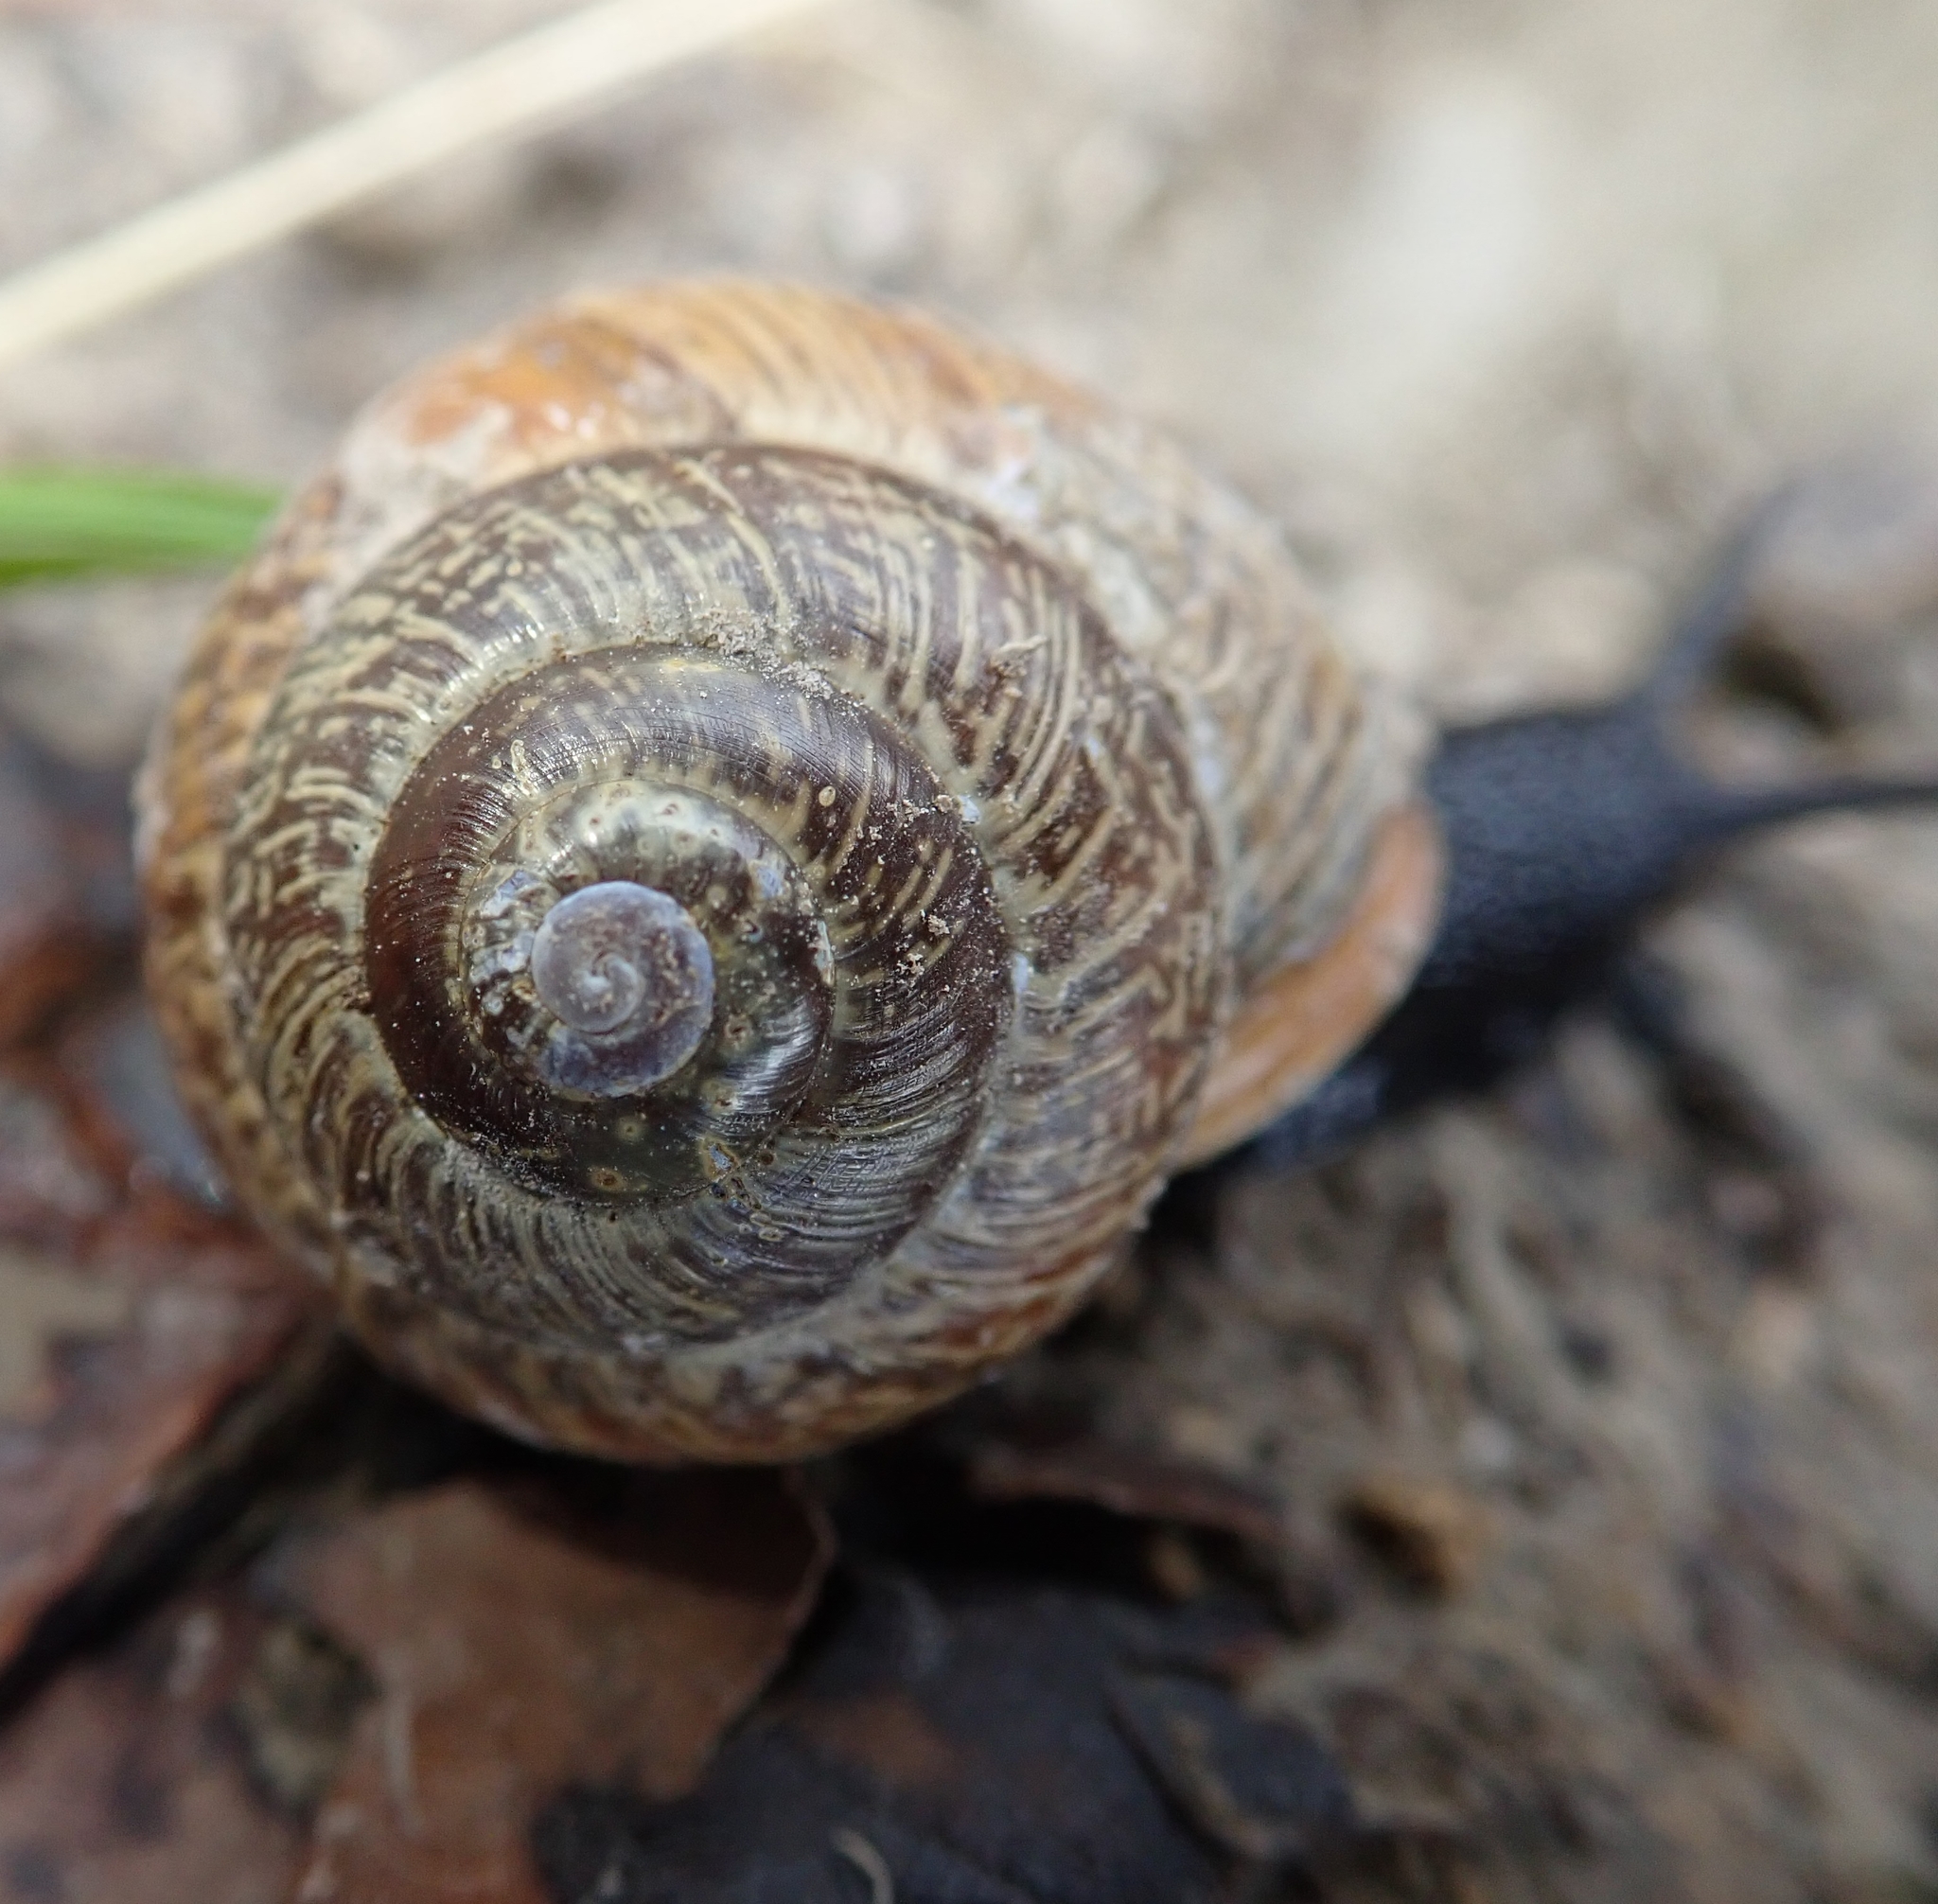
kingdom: Animalia
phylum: Mollusca
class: Gastropoda
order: Stylommatophora
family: Helicidae
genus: Arianta
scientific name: Arianta arbustorum
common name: Copse snail
